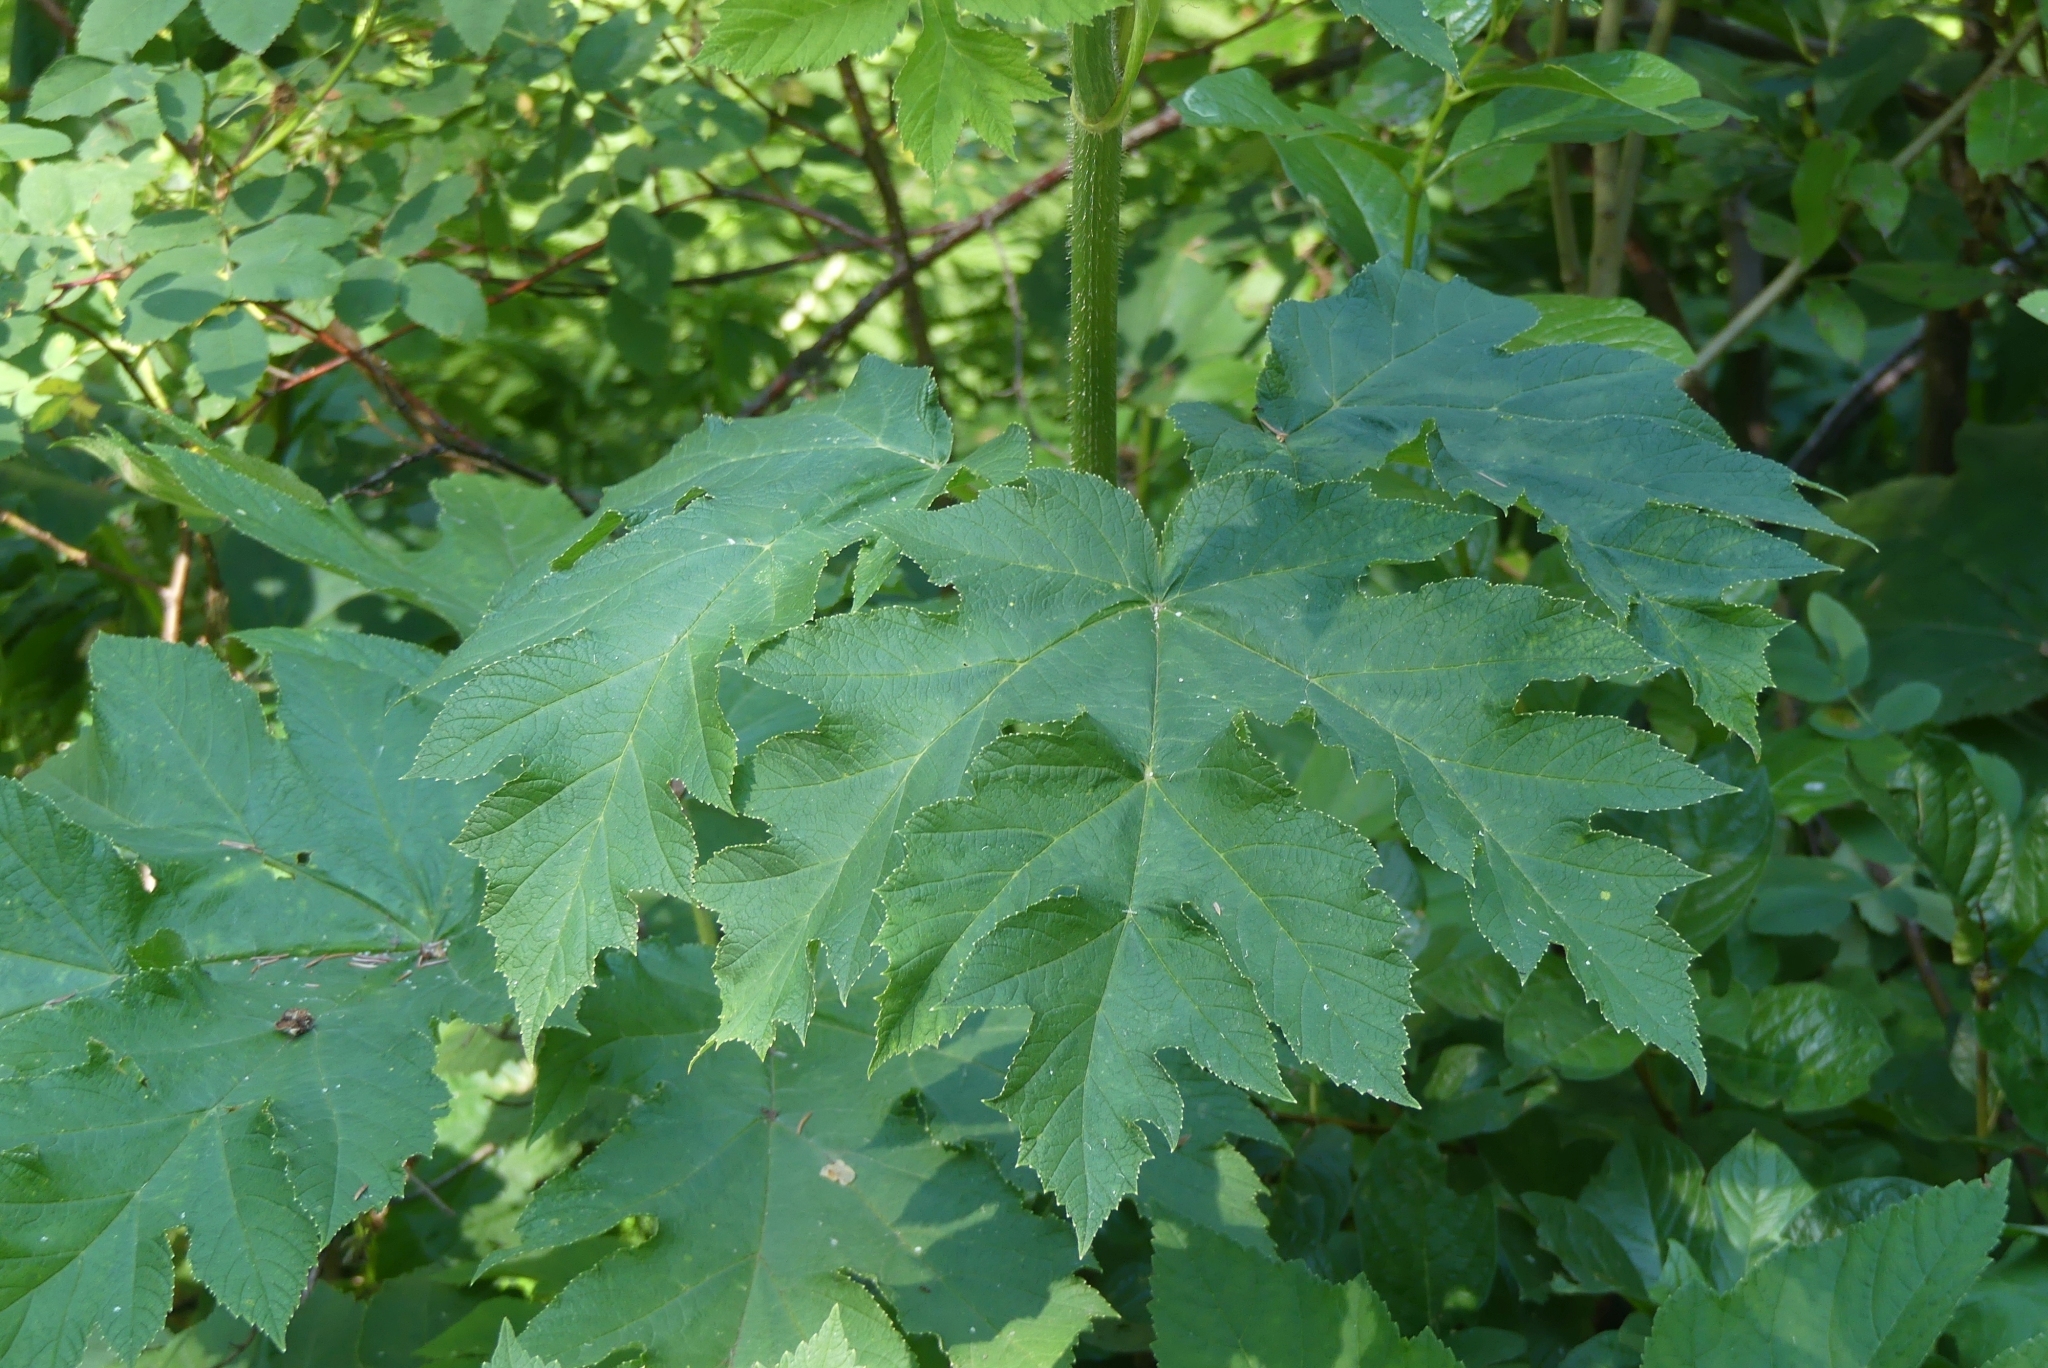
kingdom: Plantae
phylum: Tracheophyta
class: Magnoliopsida
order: Apiales
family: Apiaceae
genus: Heracleum
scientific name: Heracleum maximum
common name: American cow parsnip
